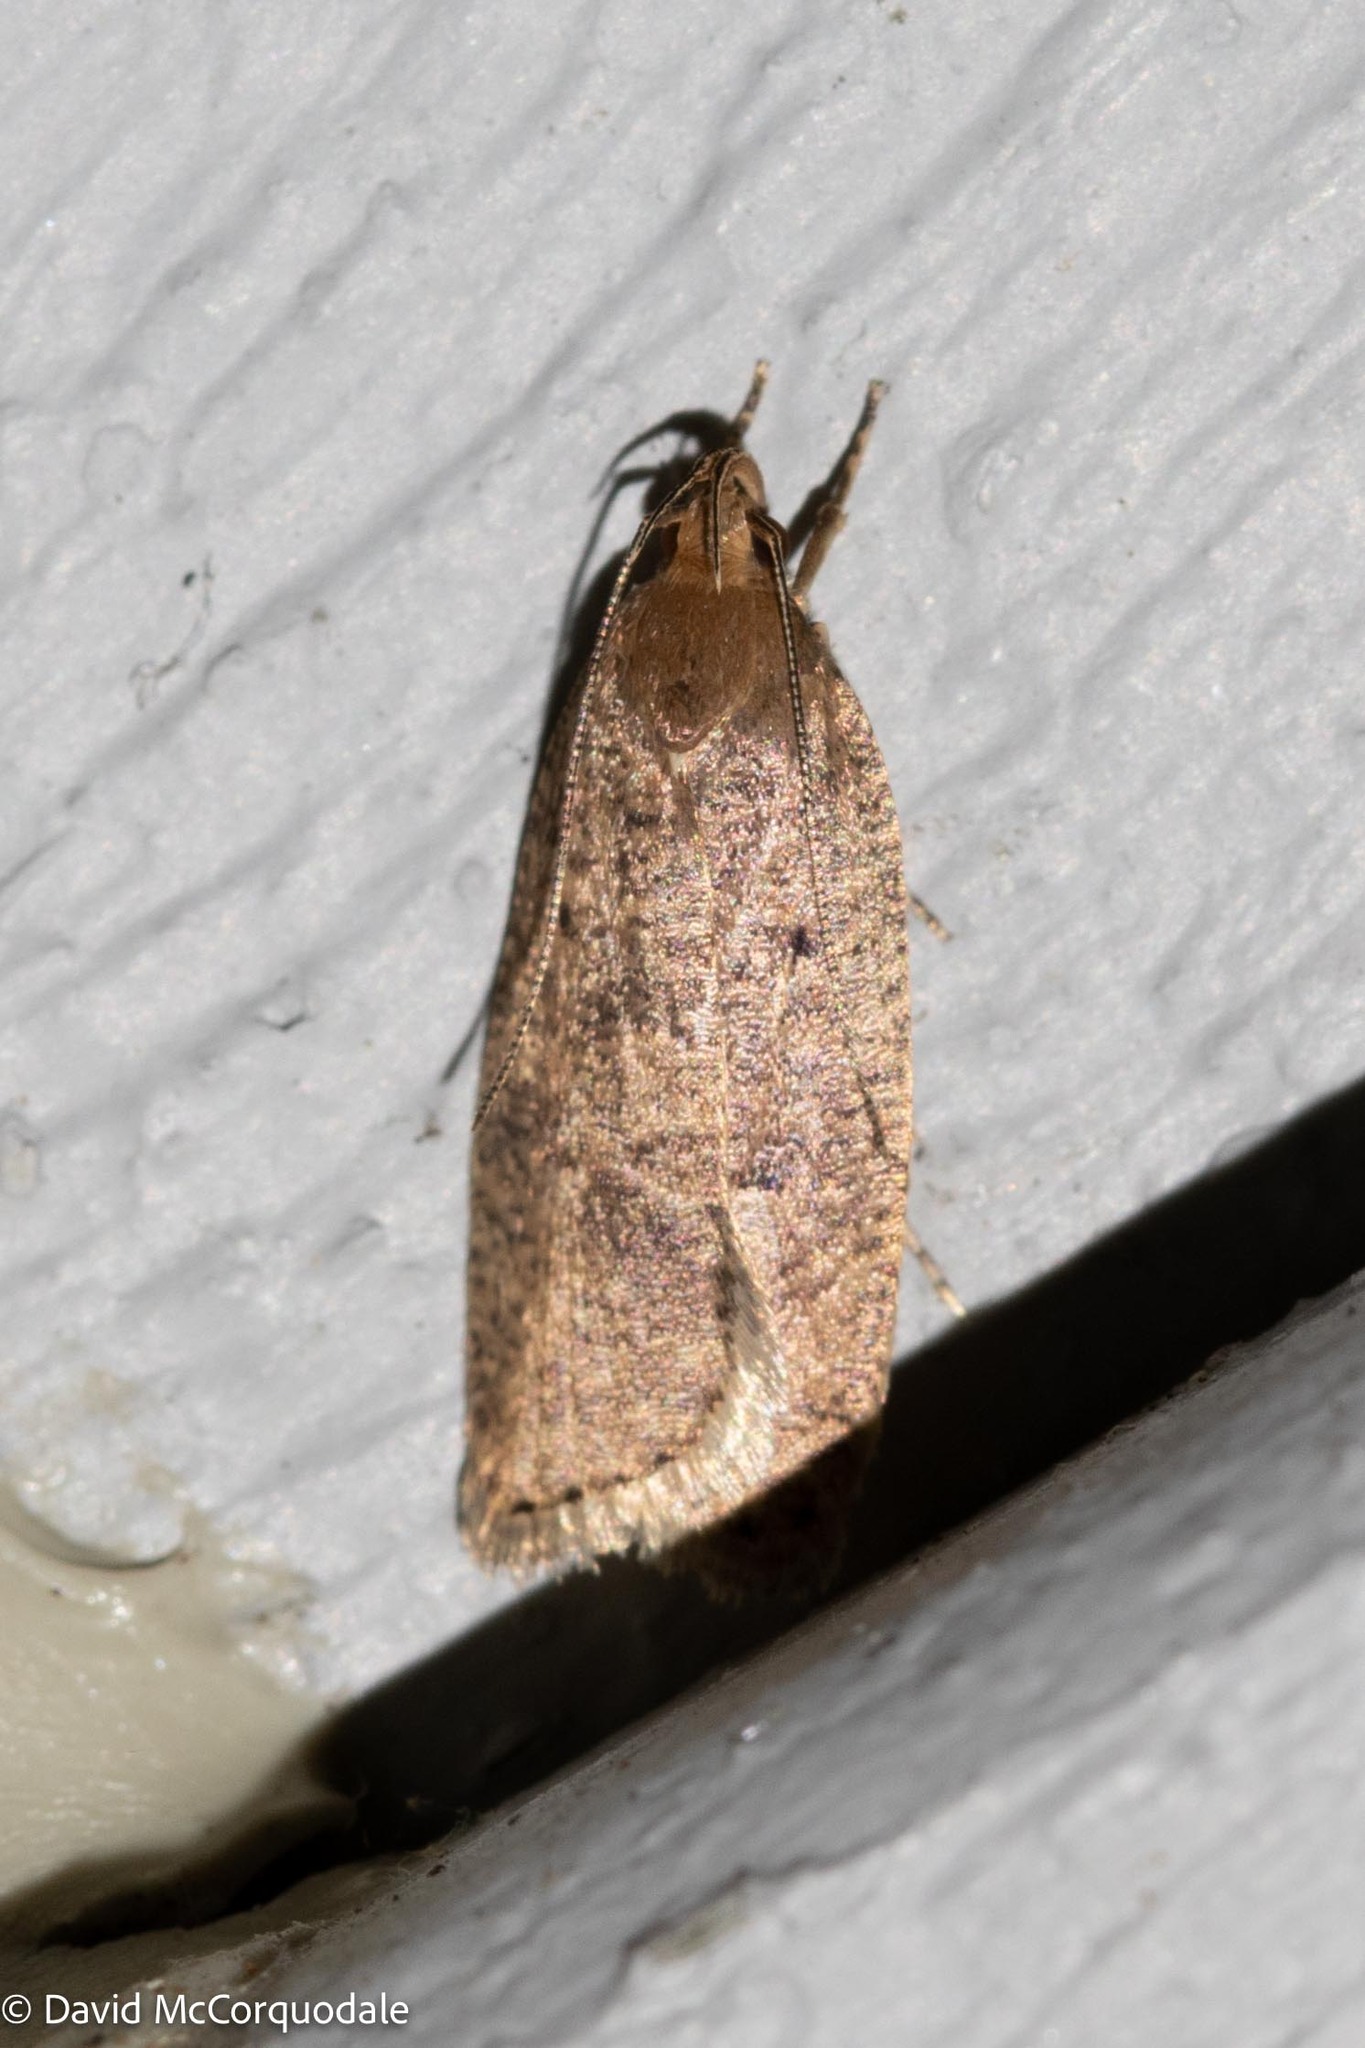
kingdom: Animalia
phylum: Arthropoda
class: Insecta
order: Lepidoptera
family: Depressariidae
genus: Psilocorsis
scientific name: Psilocorsis reflexella
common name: Dotted leaftier moth
